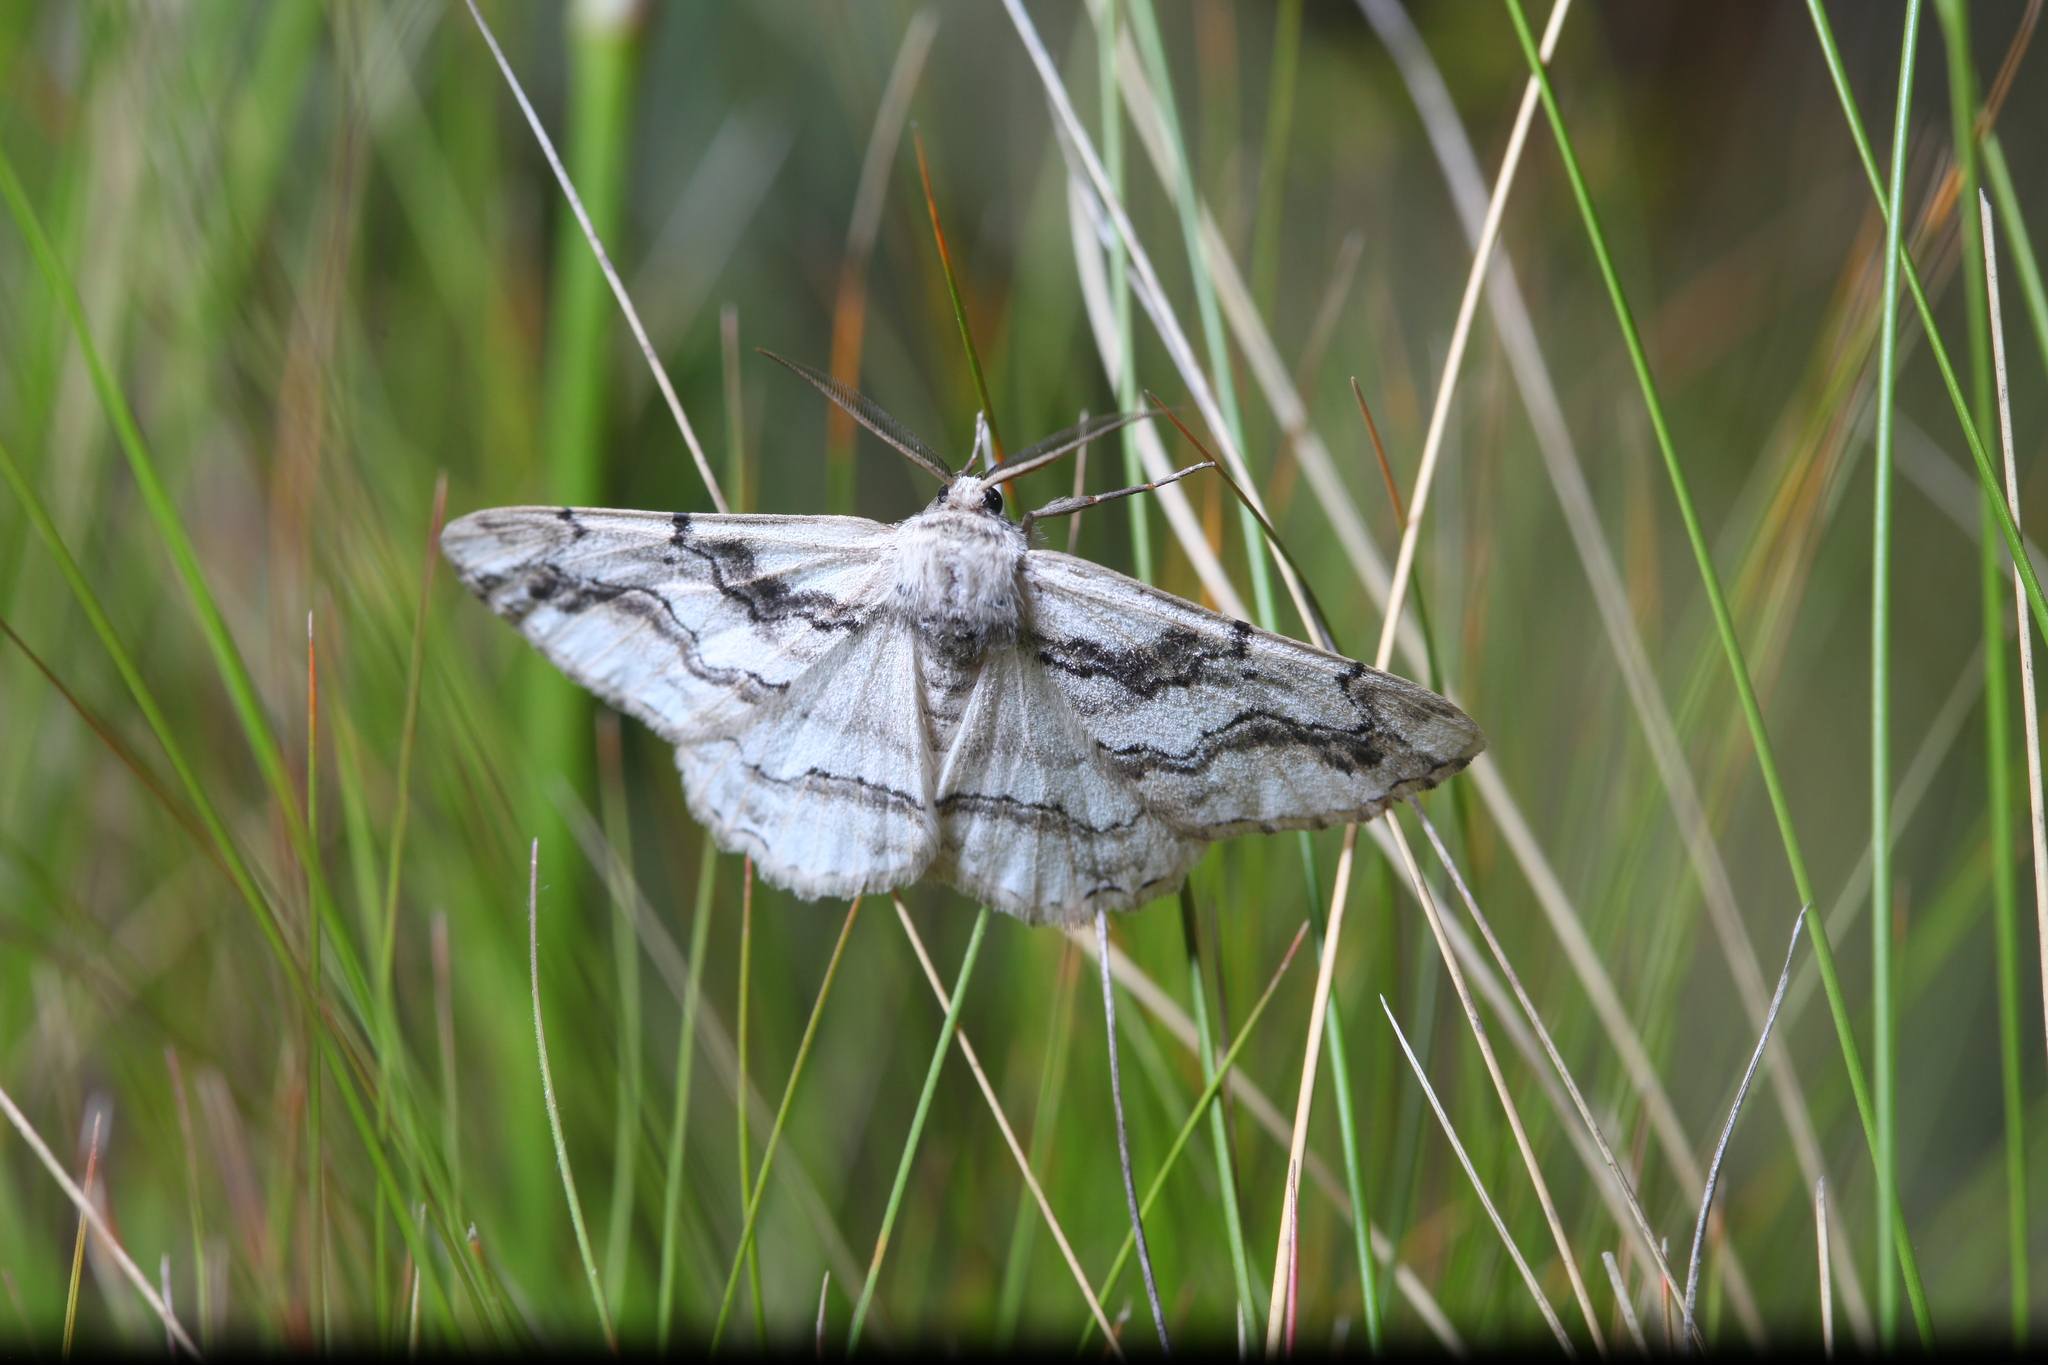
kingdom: Animalia
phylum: Arthropoda
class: Insecta
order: Lepidoptera
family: Geometridae
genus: Synopsia
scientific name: Synopsia sociaria
